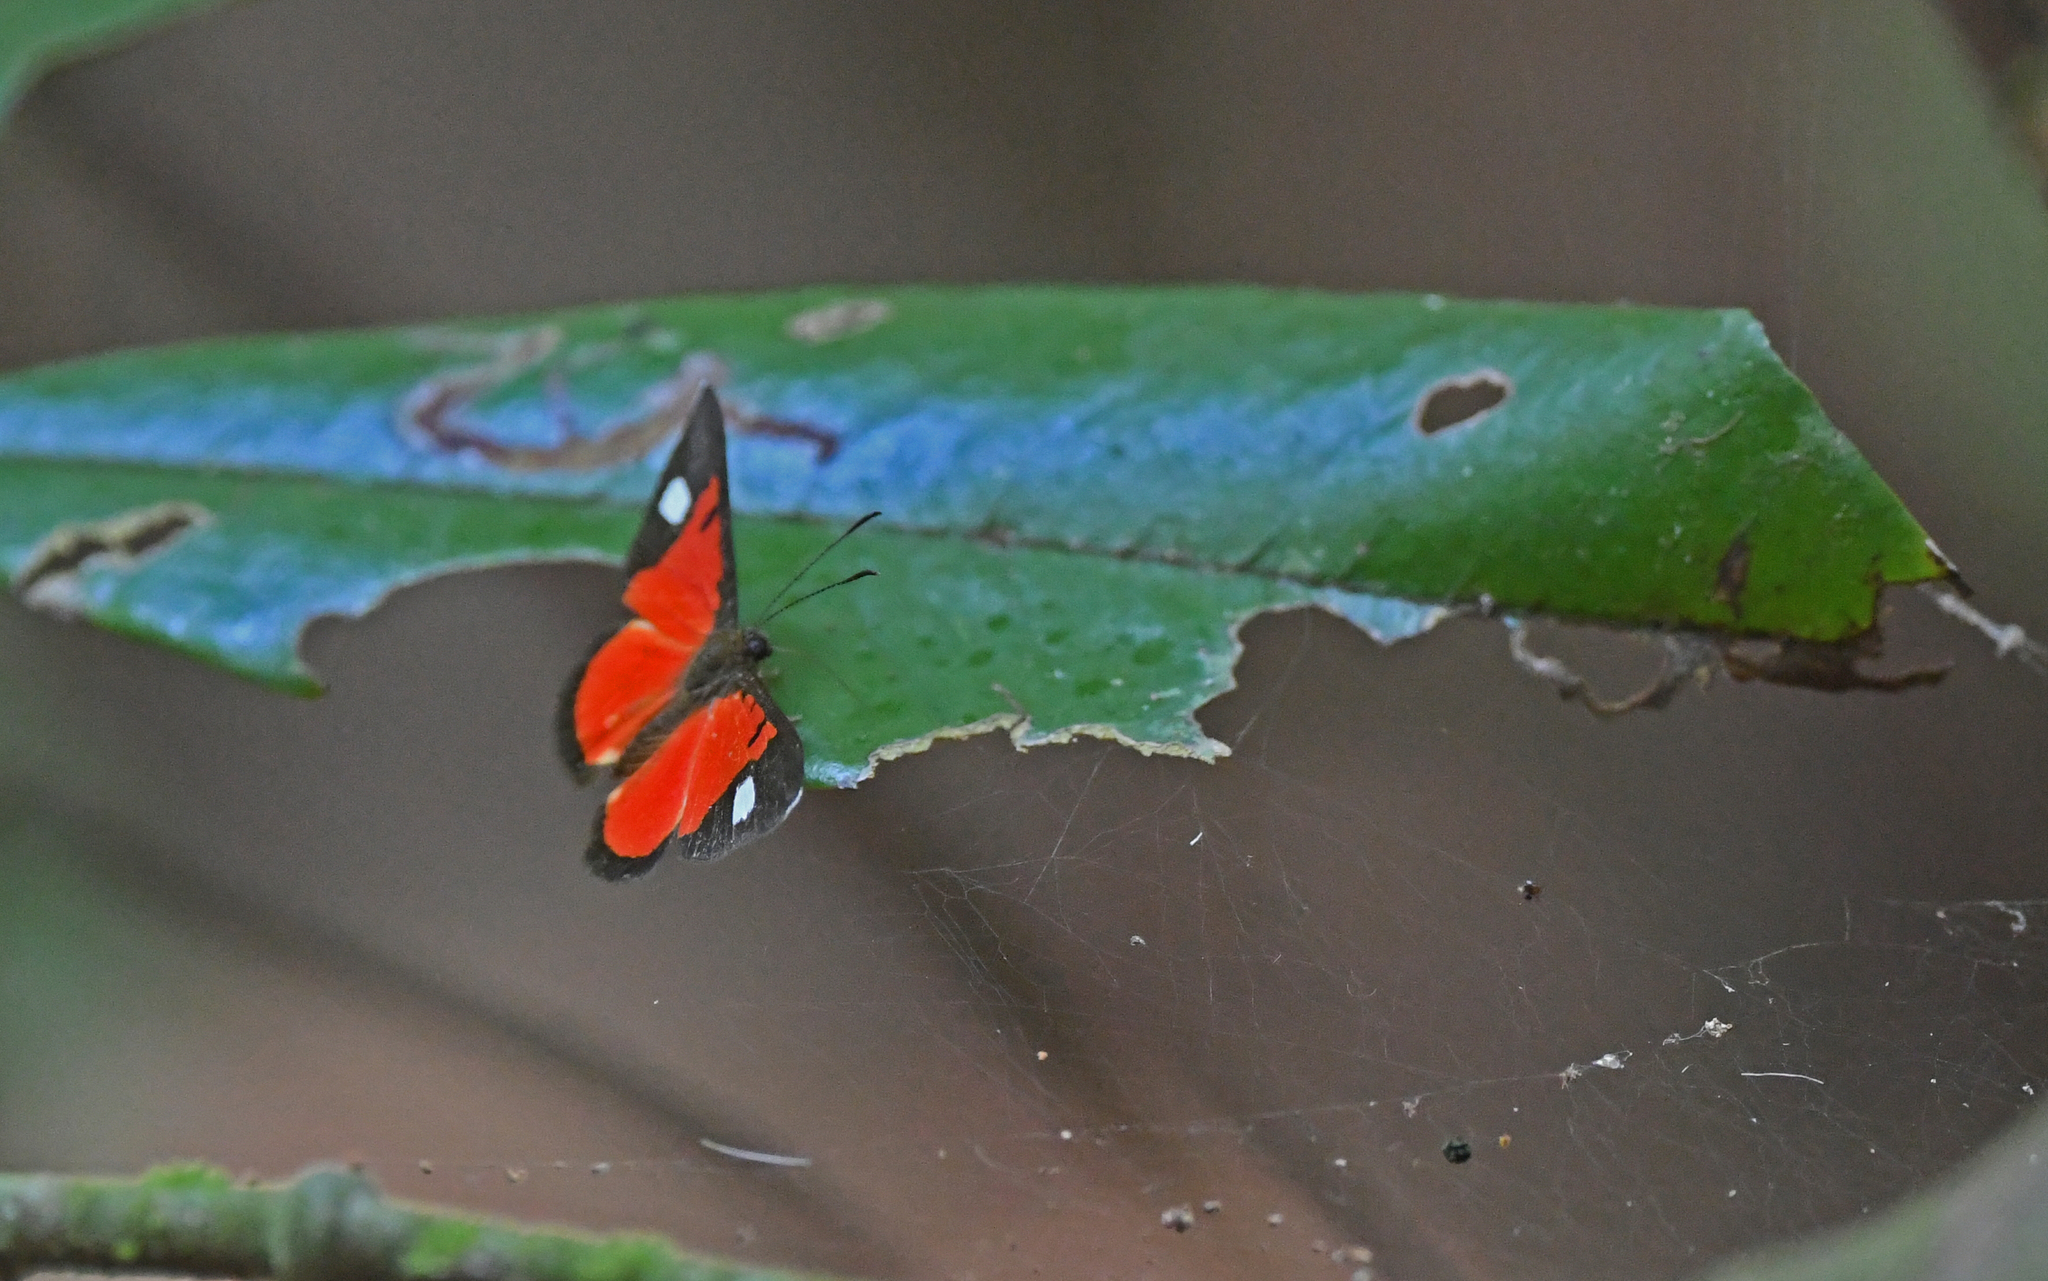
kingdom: Animalia
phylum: Arthropoda
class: Insecta
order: Lepidoptera
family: Lycaenidae
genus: Mesene
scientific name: Mesene phareus
